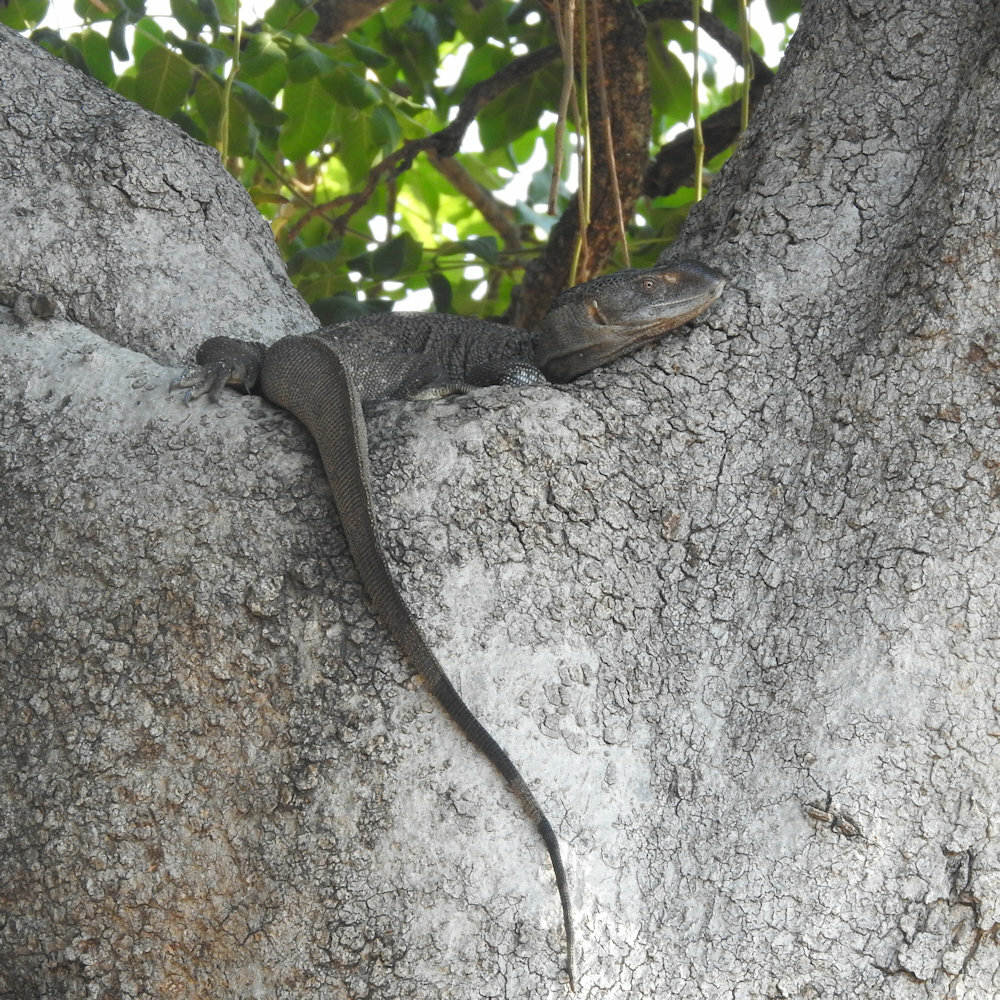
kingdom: Animalia
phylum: Chordata
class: Squamata
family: Varanidae
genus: Varanus
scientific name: Varanus albigularis
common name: White-throated monitor
